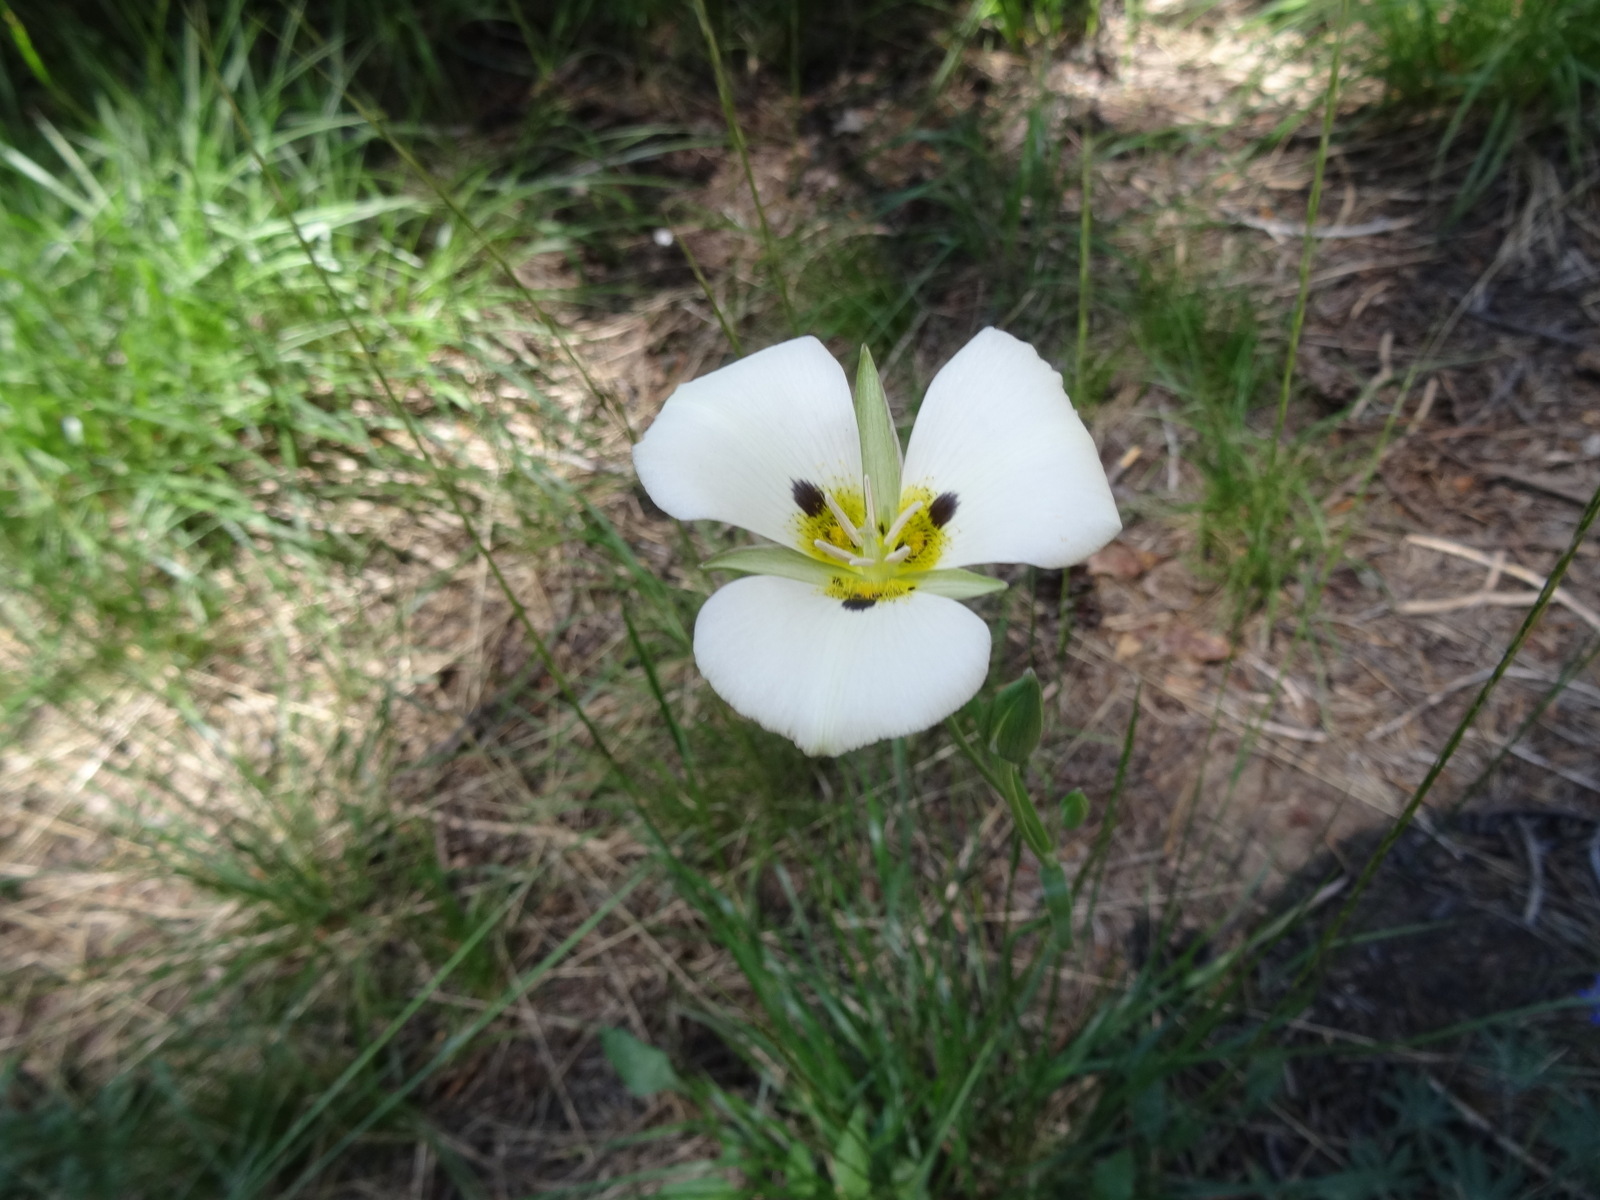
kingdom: Plantae
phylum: Tracheophyta
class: Liliopsida
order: Liliales
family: Liliaceae
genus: Calochortus
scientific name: Calochortus leichtlinii
